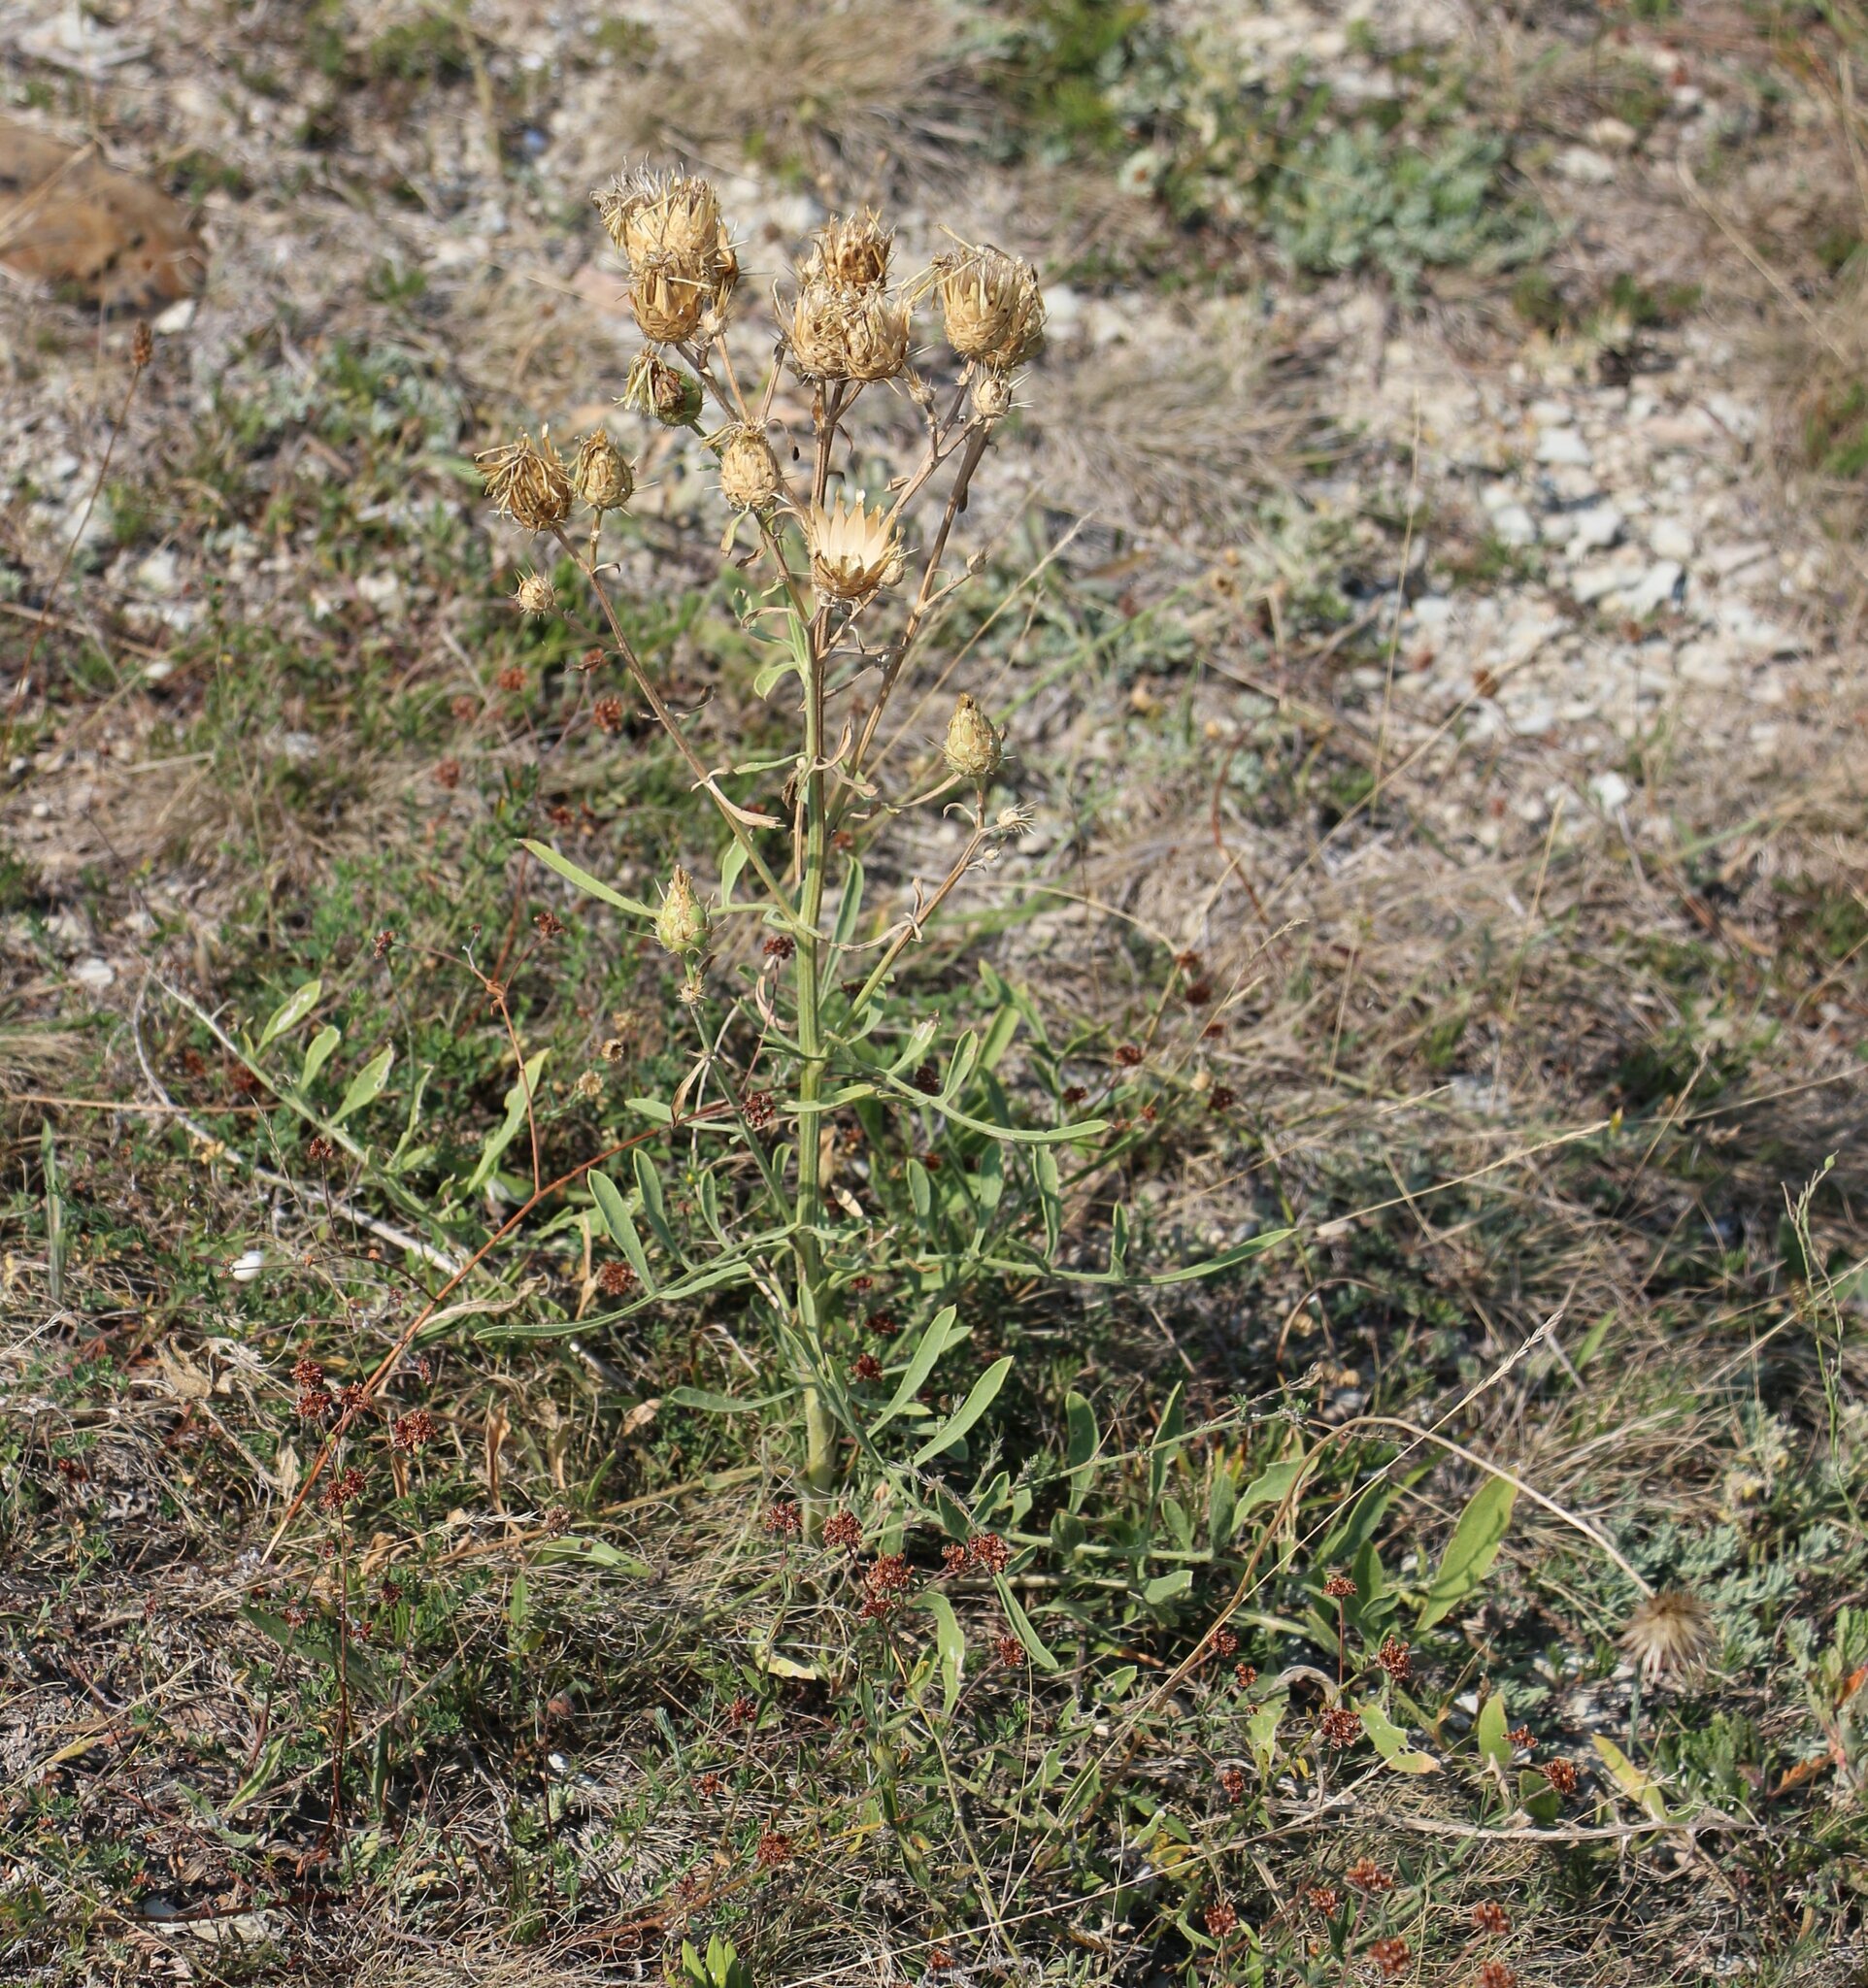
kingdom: Plantae
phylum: Tracheophyta
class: Magnoliopsida
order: Asterales
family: Asteraceae
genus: Centaurea
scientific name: Centaurea salonitana
